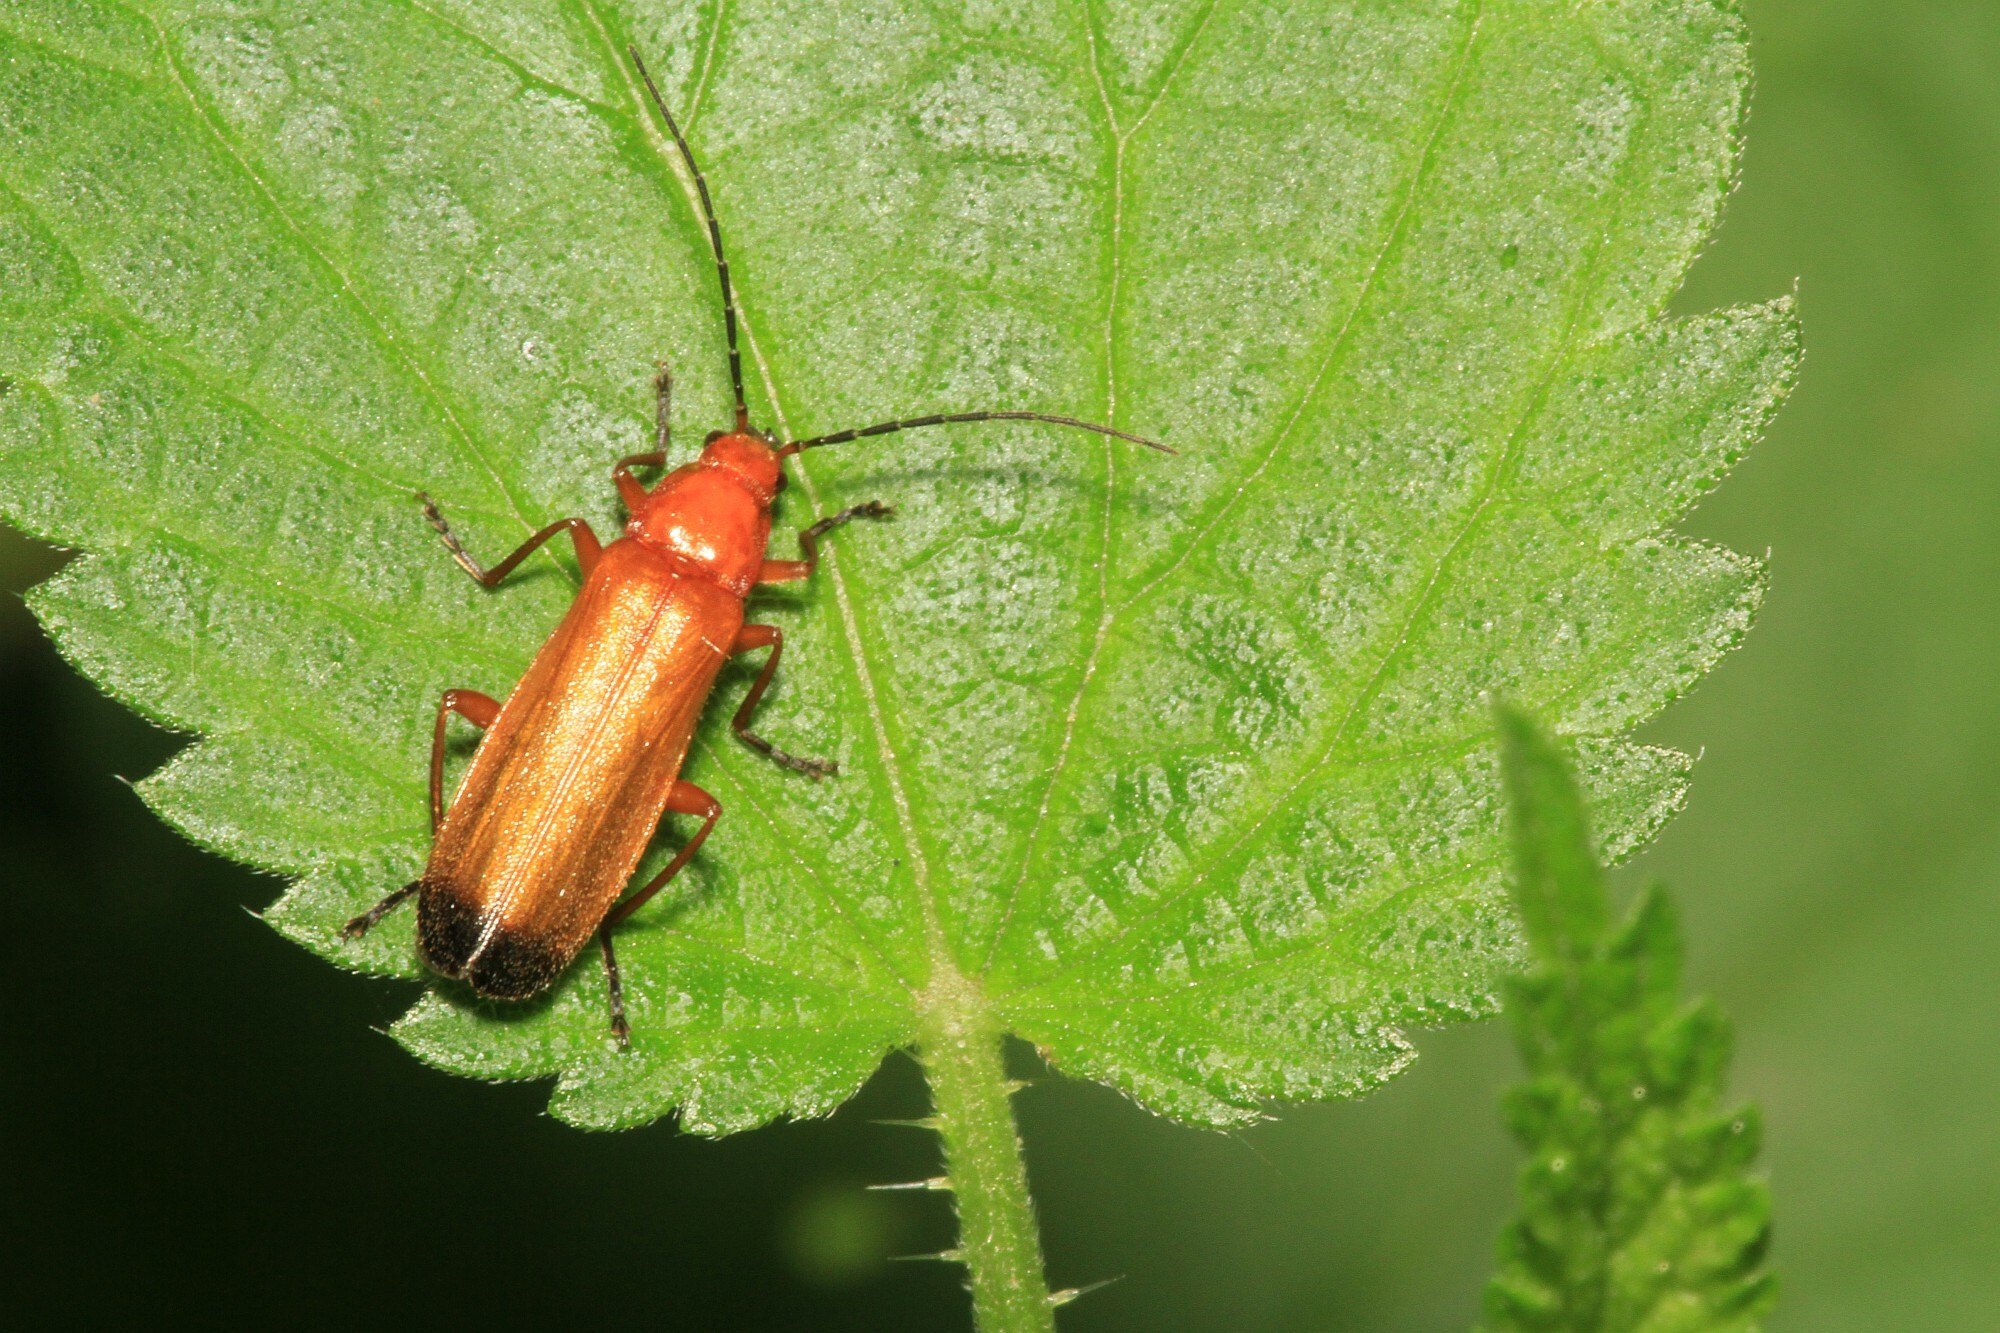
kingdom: Animalia
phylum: Arthropoda
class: Insecta
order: Coleoptera
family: Cantharidae
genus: Rhagonycha
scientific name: Rhagonycha fulva
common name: Common red soldier beetle
